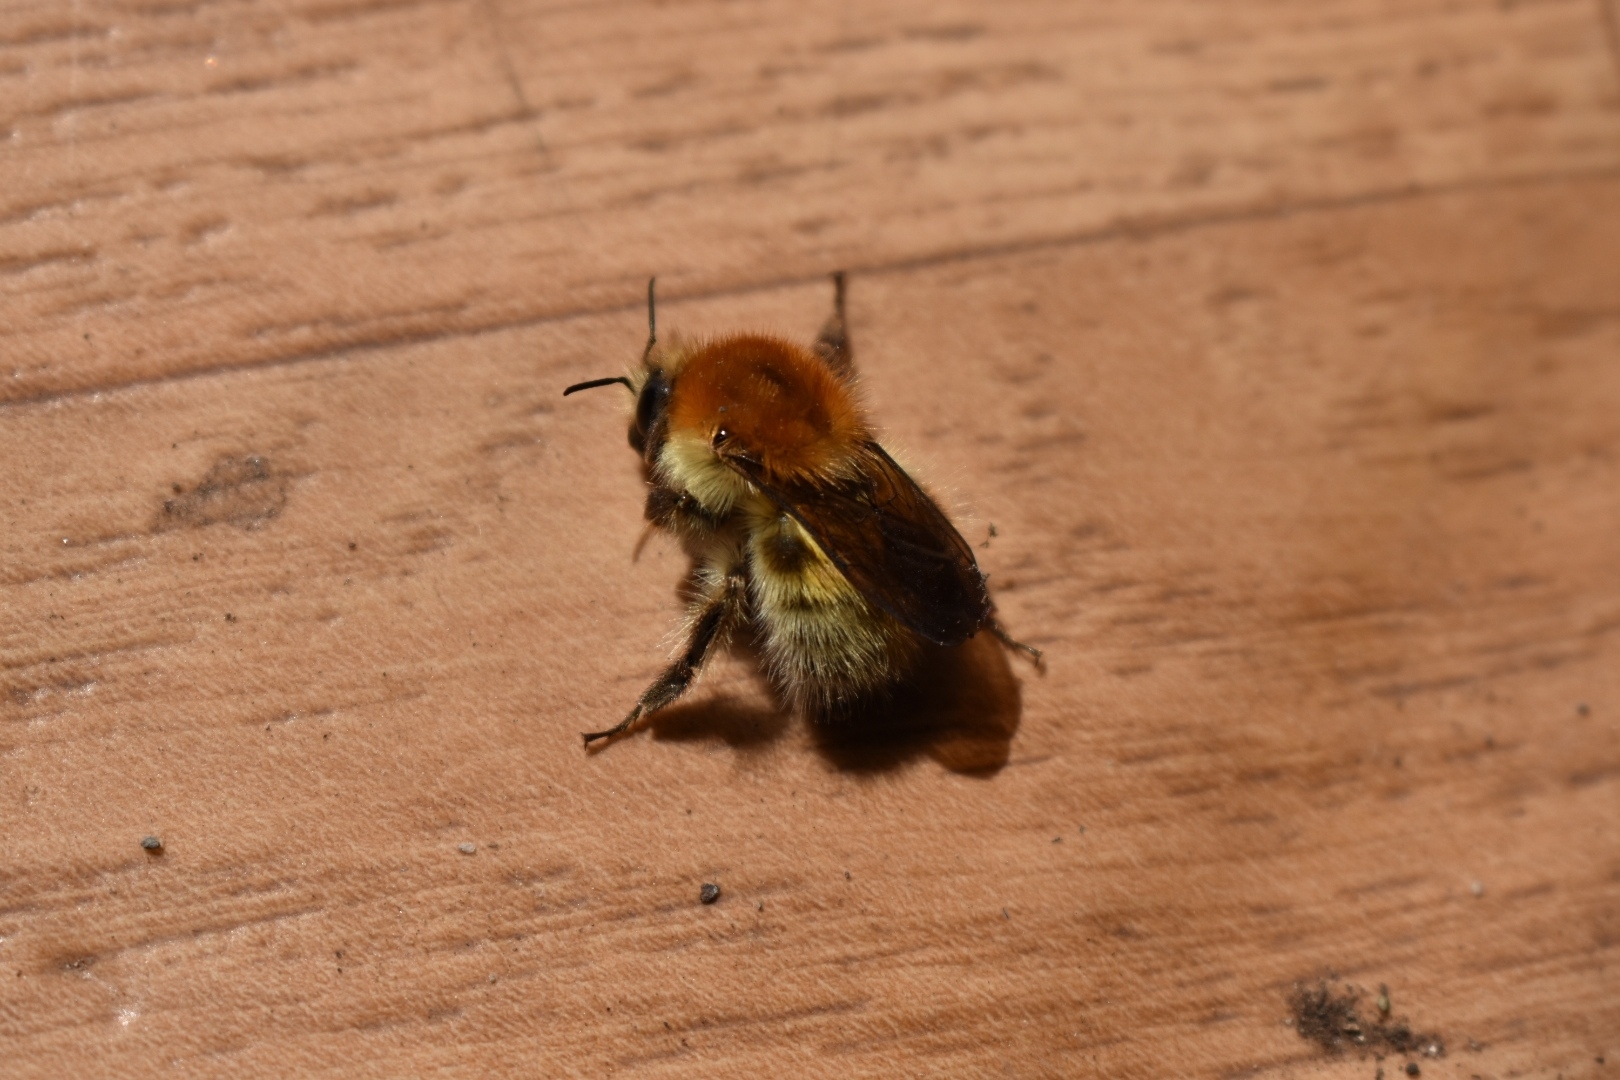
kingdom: Animalia
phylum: Arthropoda
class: Insecta
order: Hymenoptera
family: Apidae
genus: Bombus
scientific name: Bombus schrencki
